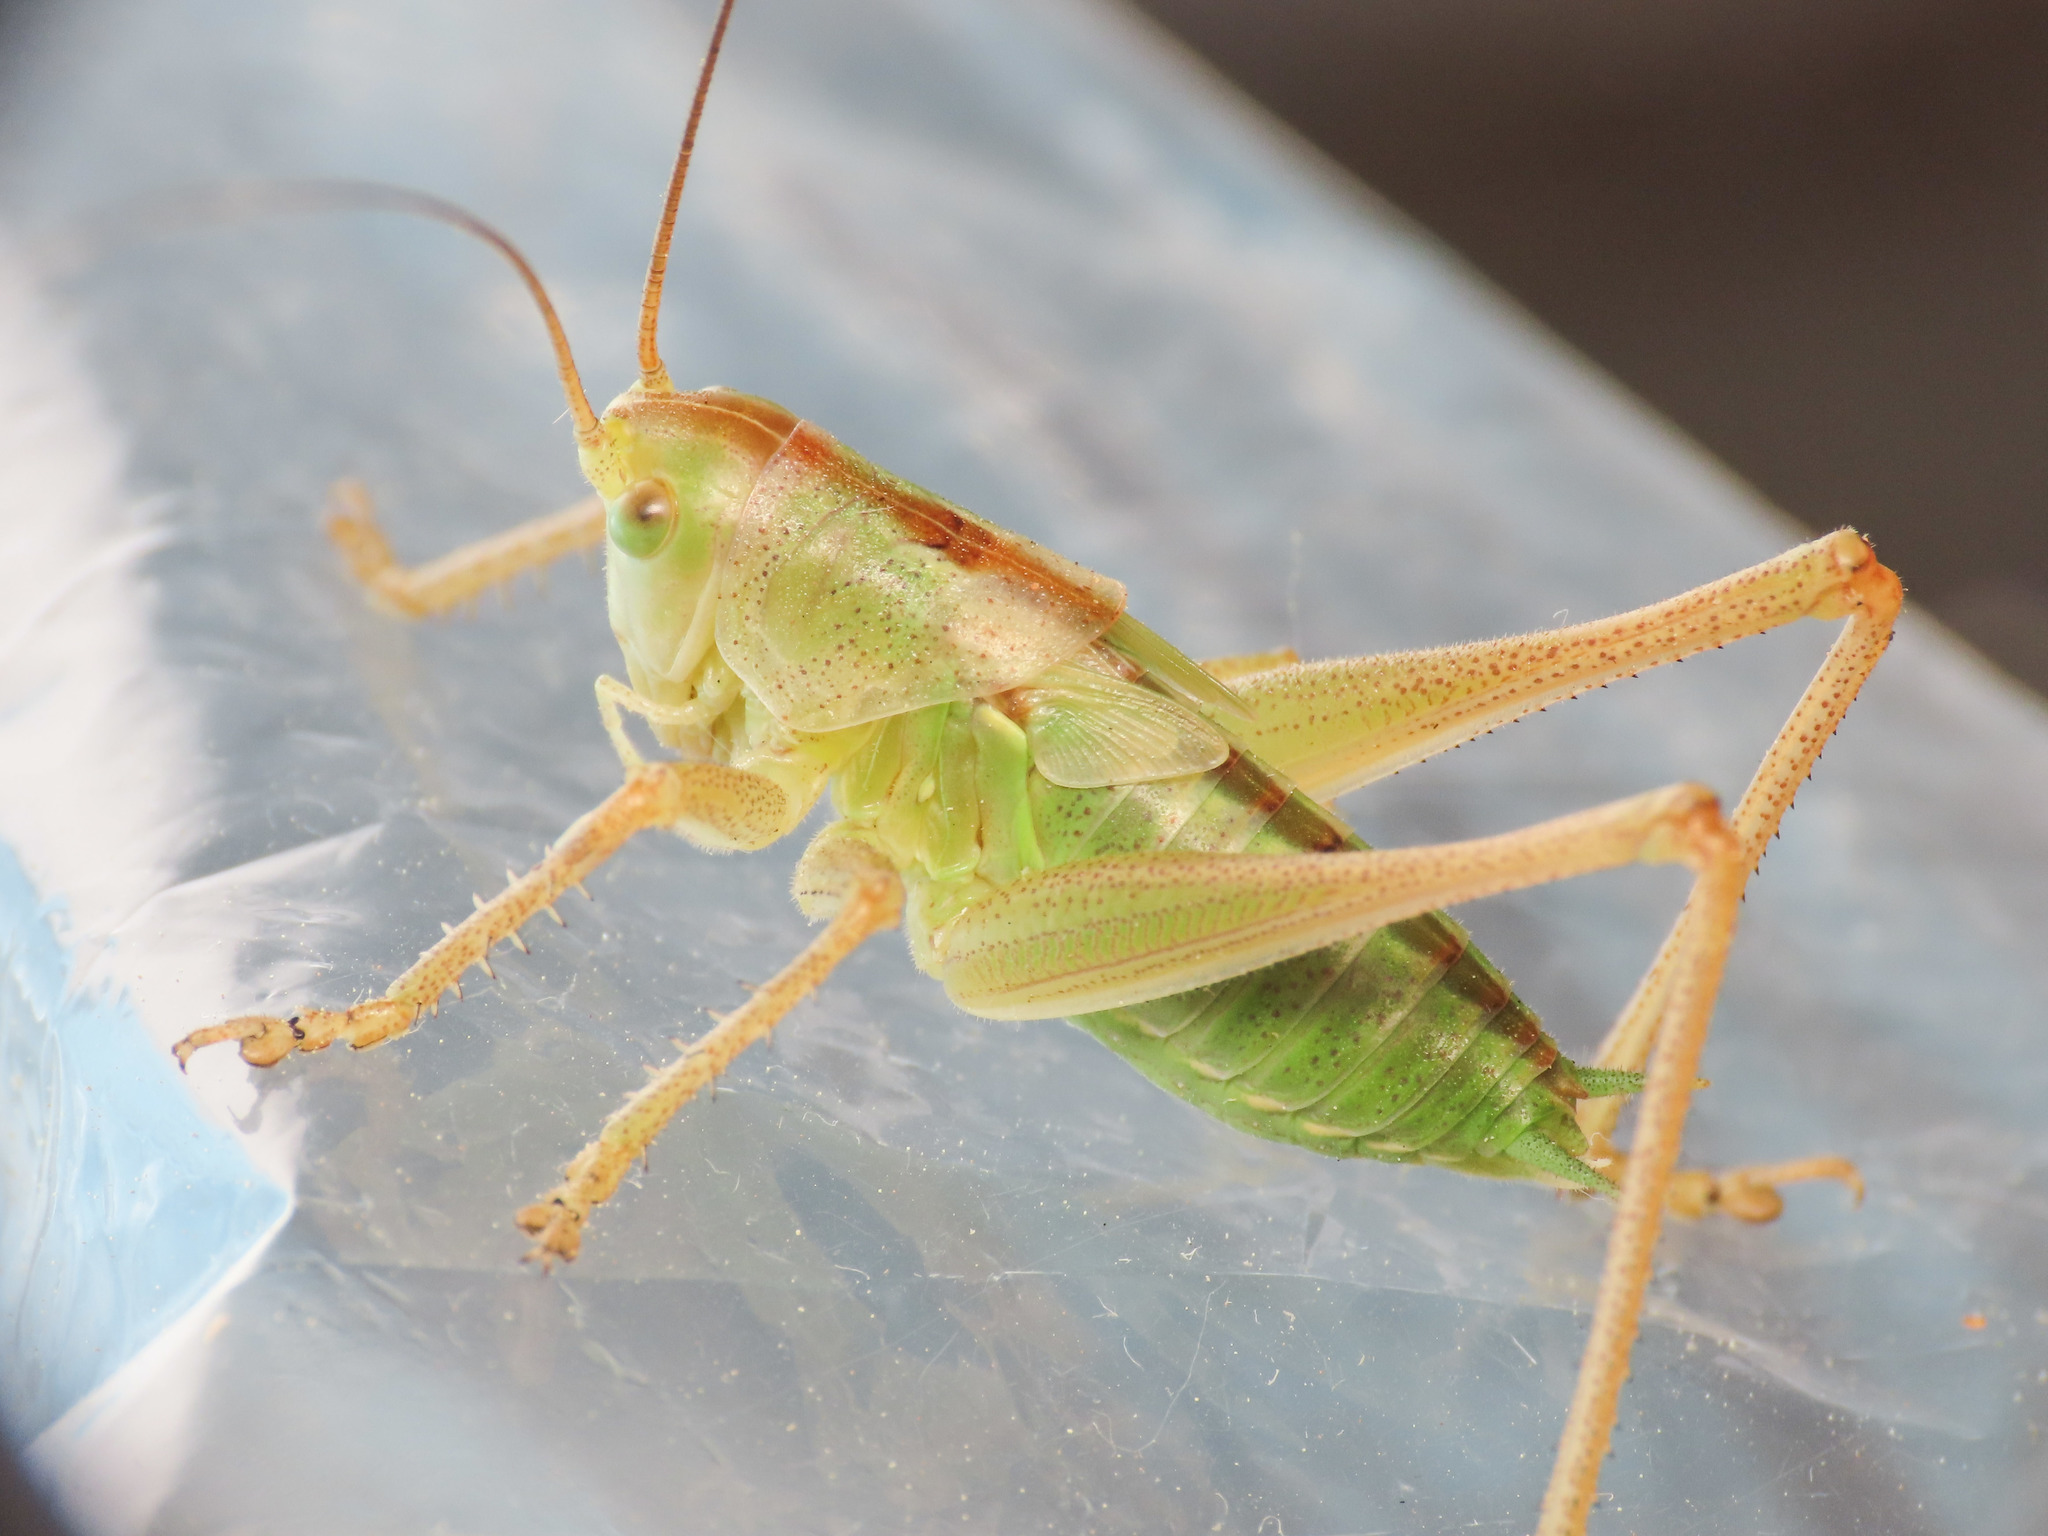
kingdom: Animalia
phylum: Arthropoda
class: Insecta
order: Orthoptera
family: Tettigoniidae
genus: Tettigonia
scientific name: Tettigonia viridissima
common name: Great green bush-cricket
